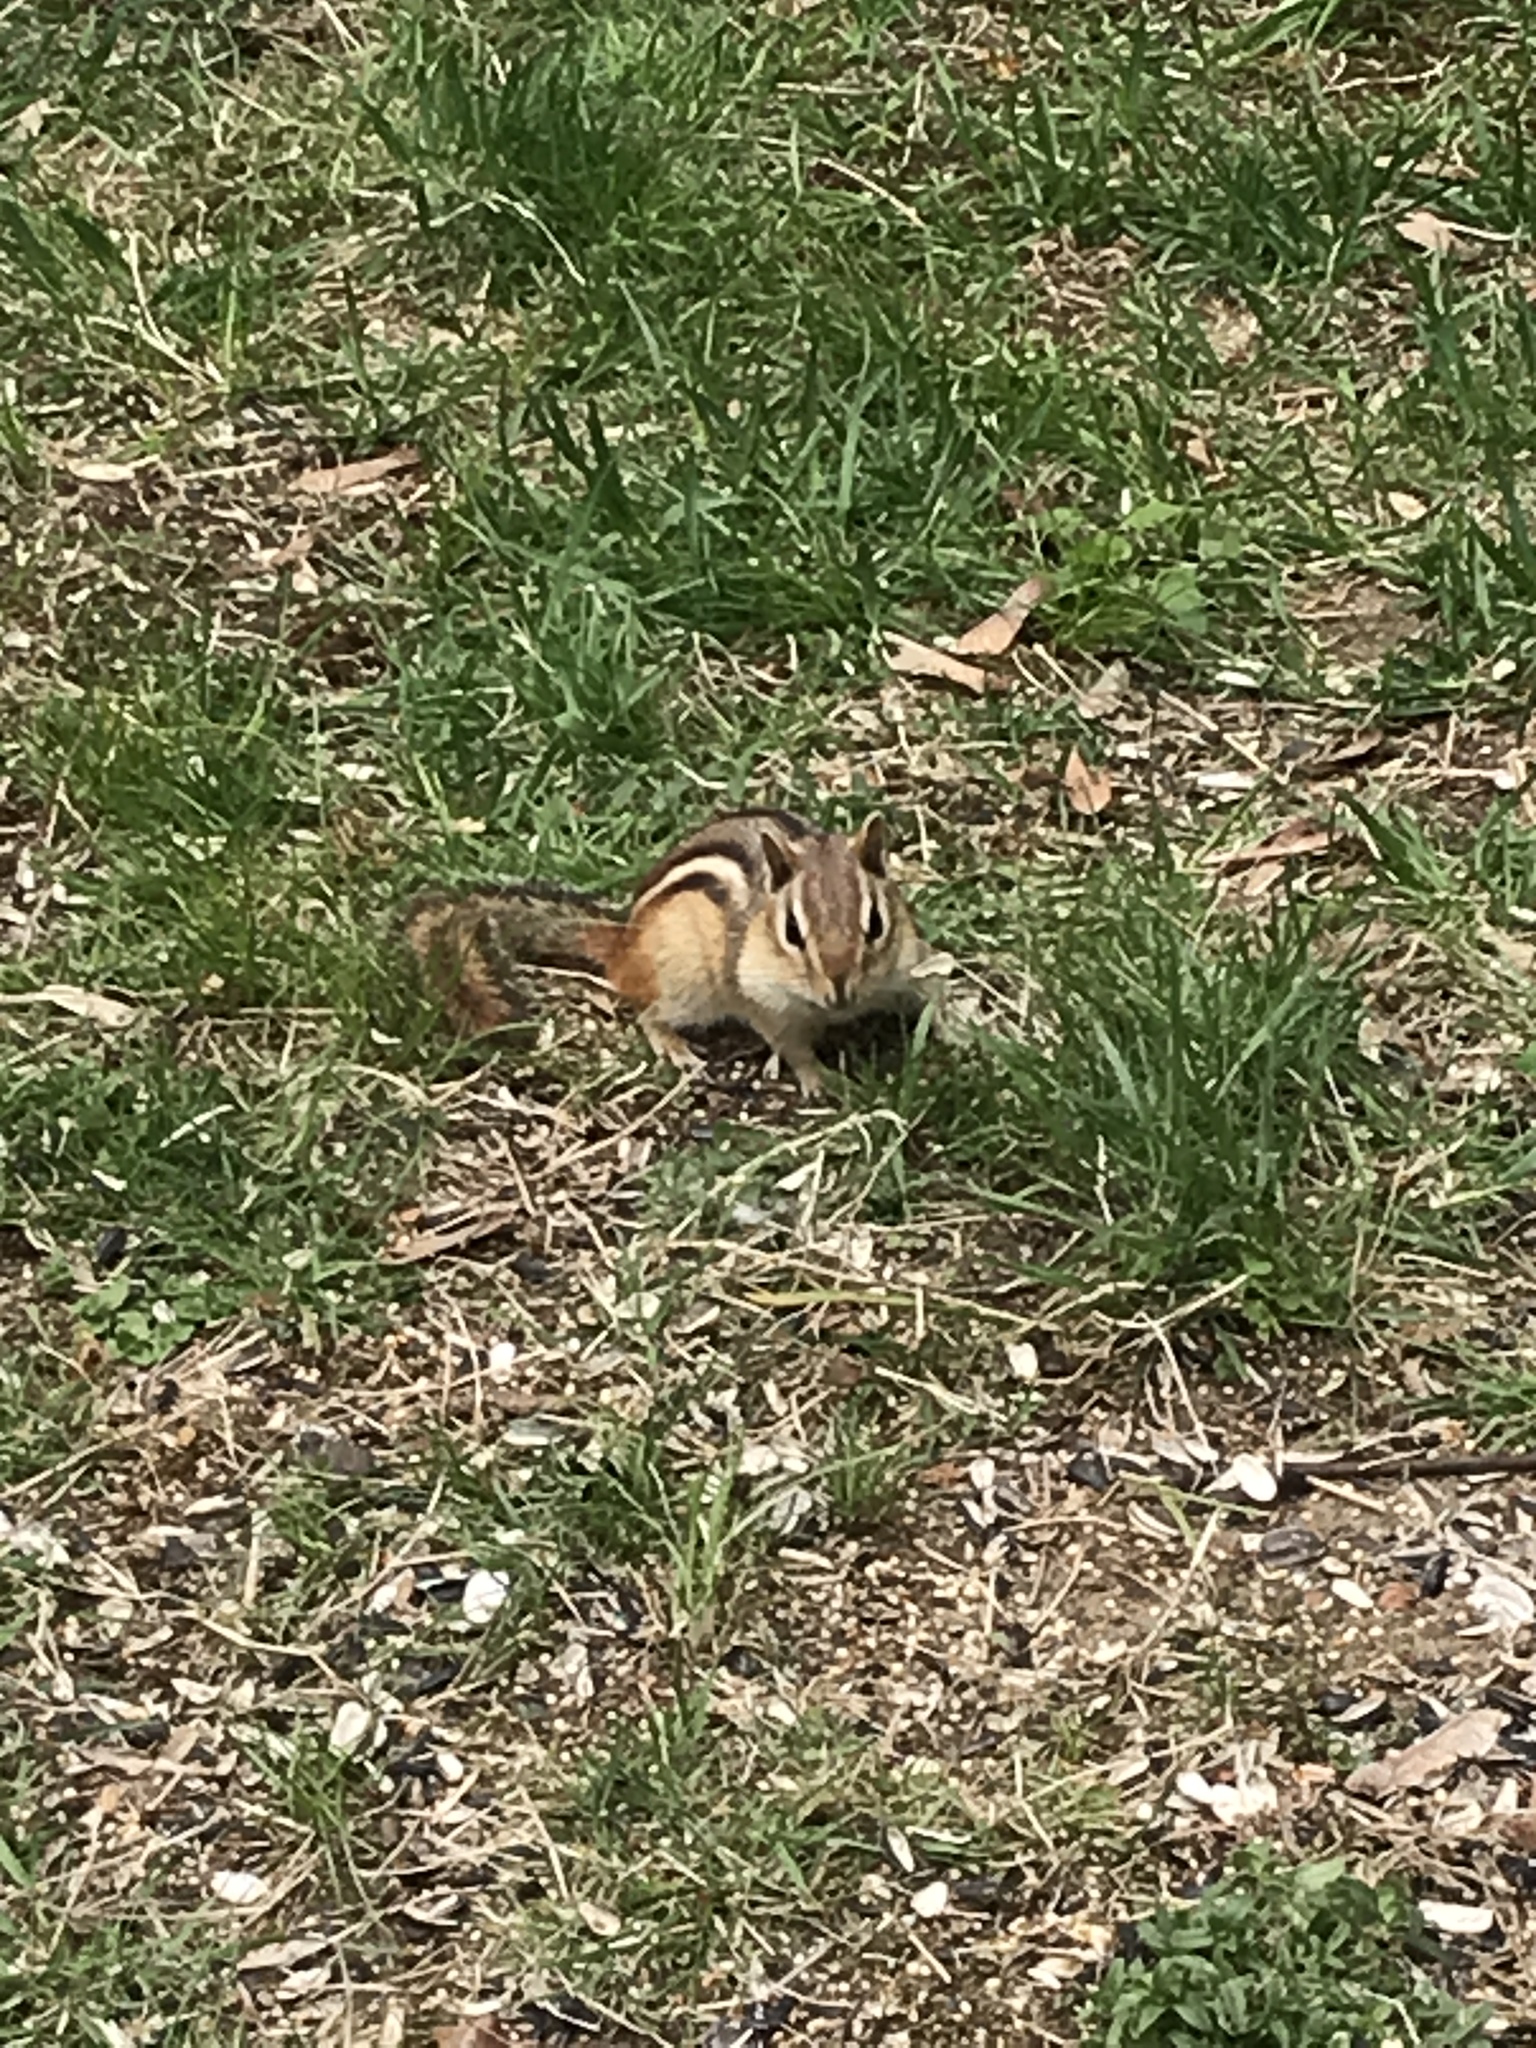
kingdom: Animalia
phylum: Chordata
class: Mammalia
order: Rodentia
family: Sciuridae
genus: Tamias
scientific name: Tamias striatus
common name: Eastern chipmunk
